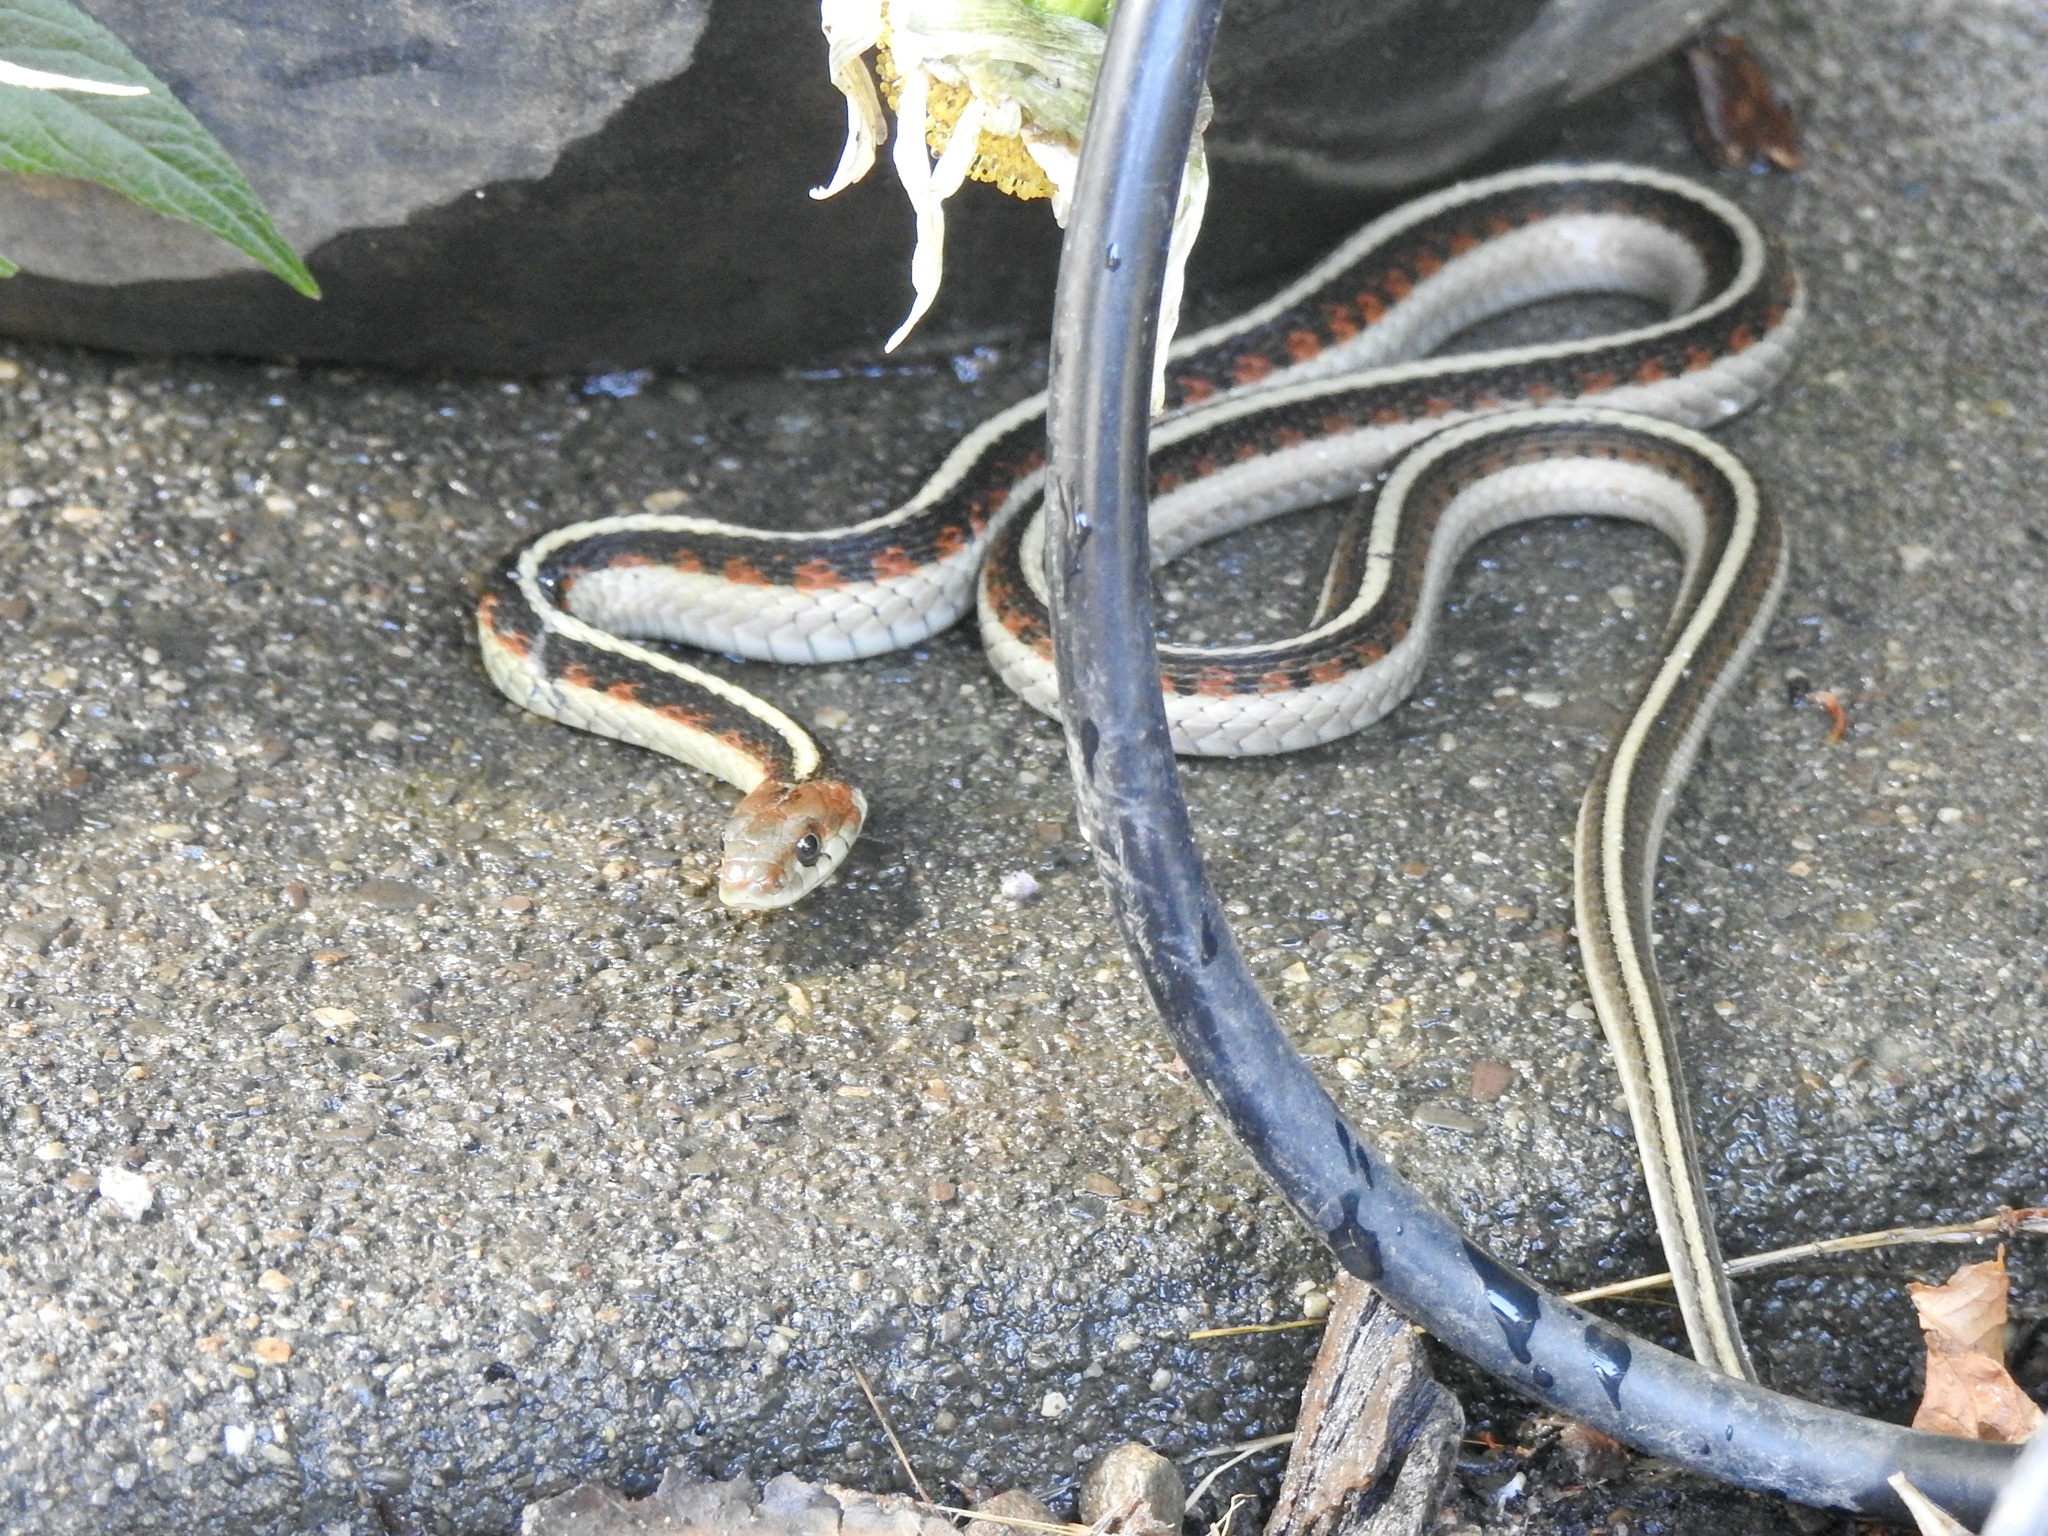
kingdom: Animalia
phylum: Chordata
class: Squamata
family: Colubridae
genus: Thamnophis
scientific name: Thamnophis sirtalis
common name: Common garter snake
